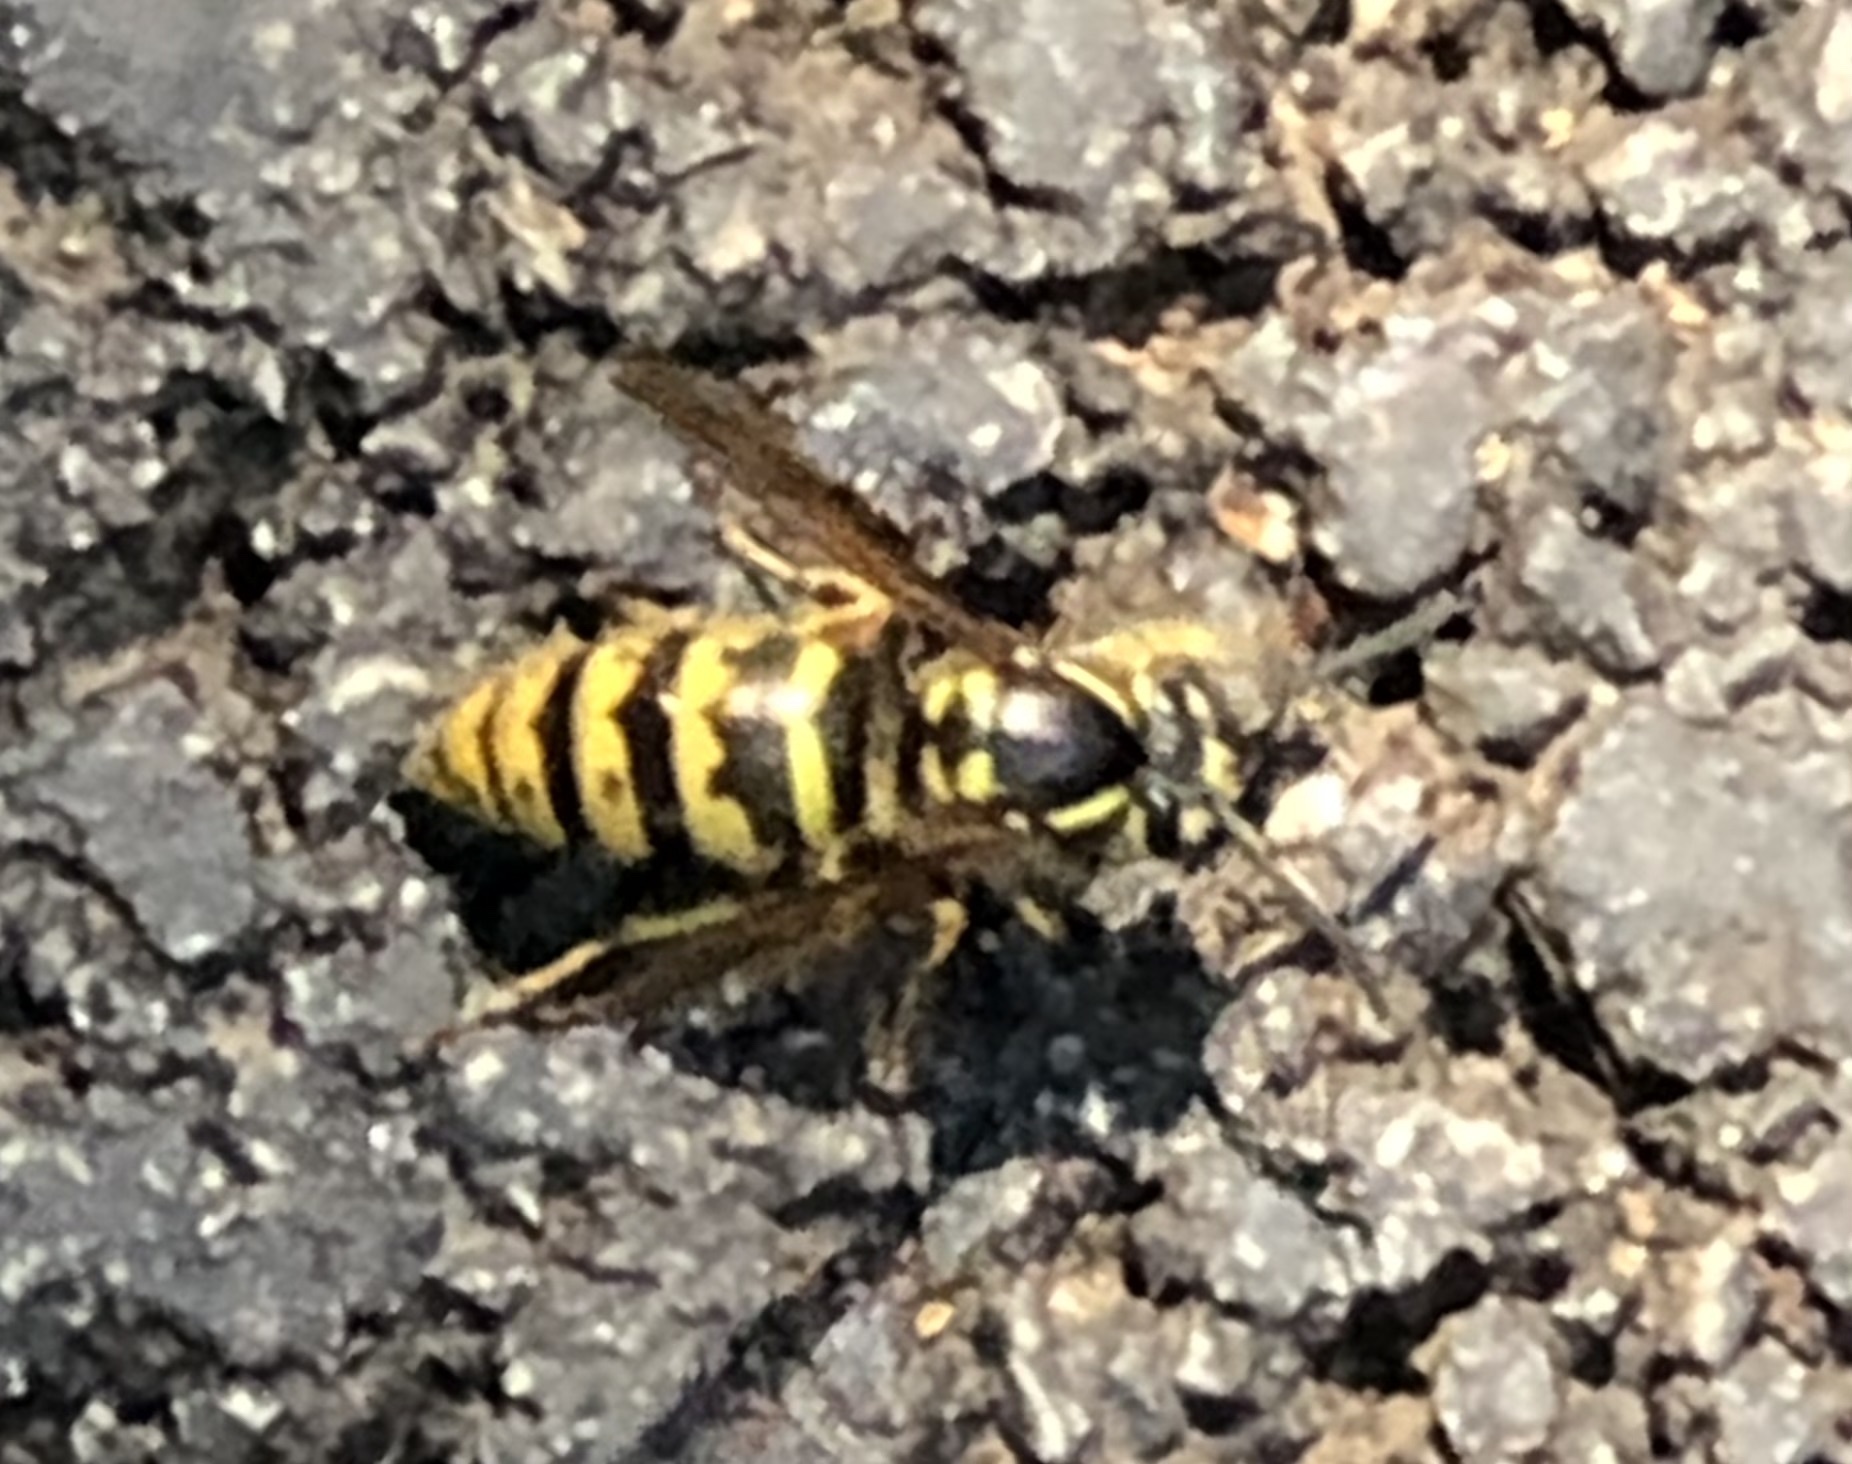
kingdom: Animalia
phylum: Arthropoda
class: Insecta
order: Hymenoptera
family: Vespidae
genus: Vespula
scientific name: Vespula vulgaris
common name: Common wasp
